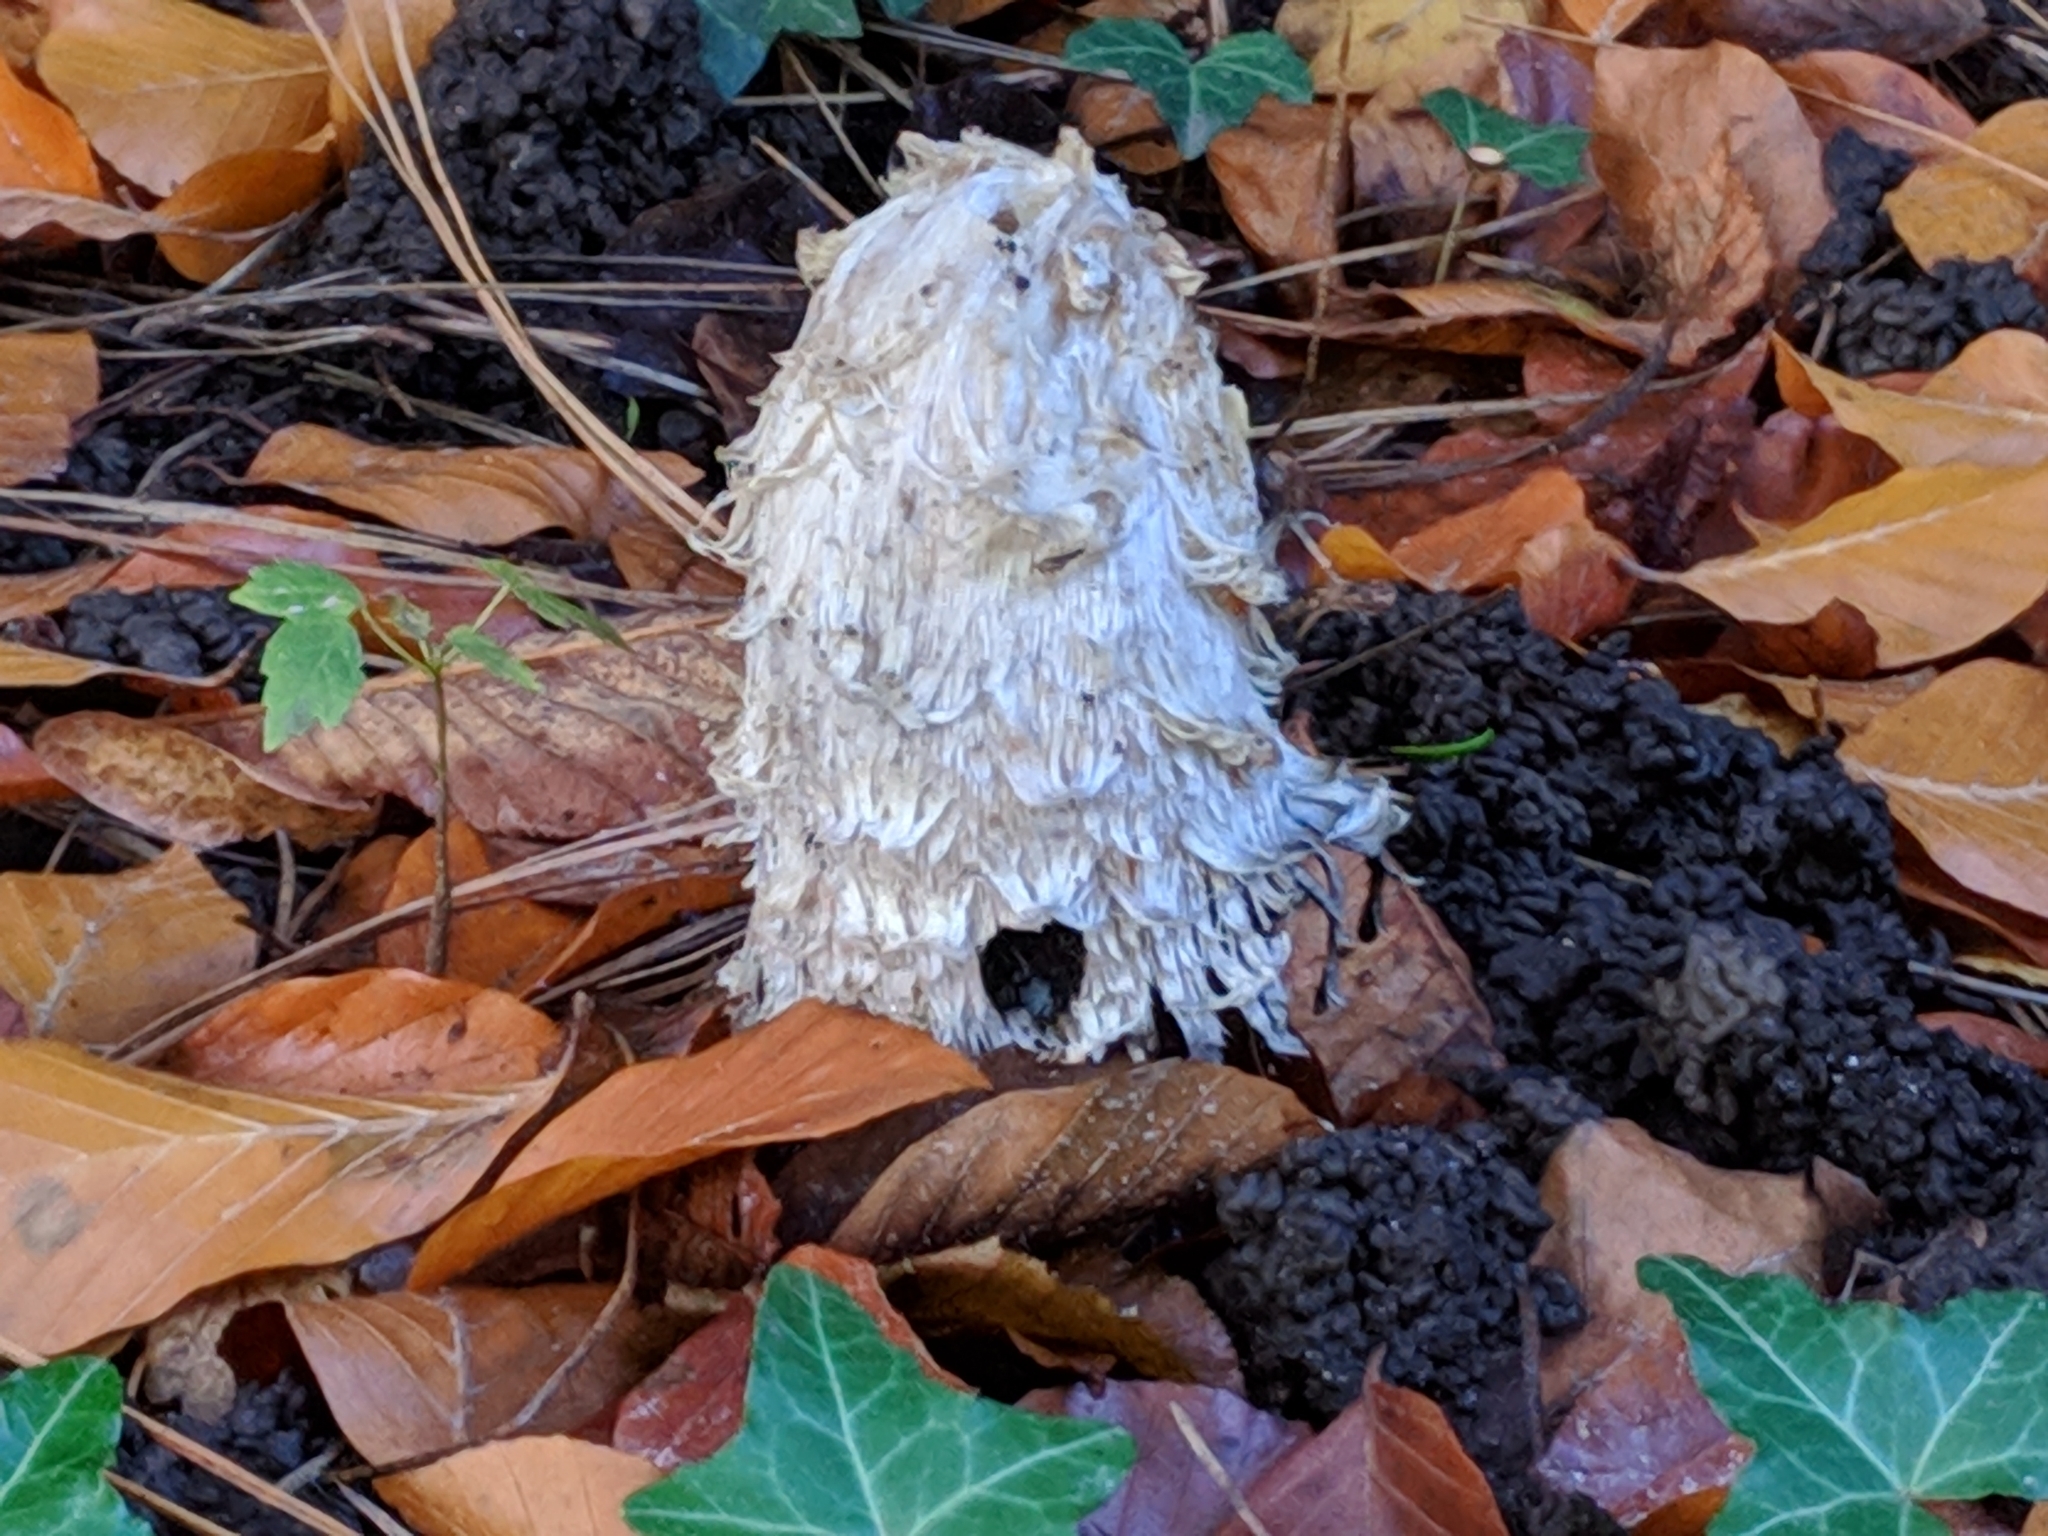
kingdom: Fungi
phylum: Basidiomycota
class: Agaricomycetes
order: Agaricales
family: Agaricaceae
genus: Coprinus
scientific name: Coprinus comatus
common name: Lawyer's wig
